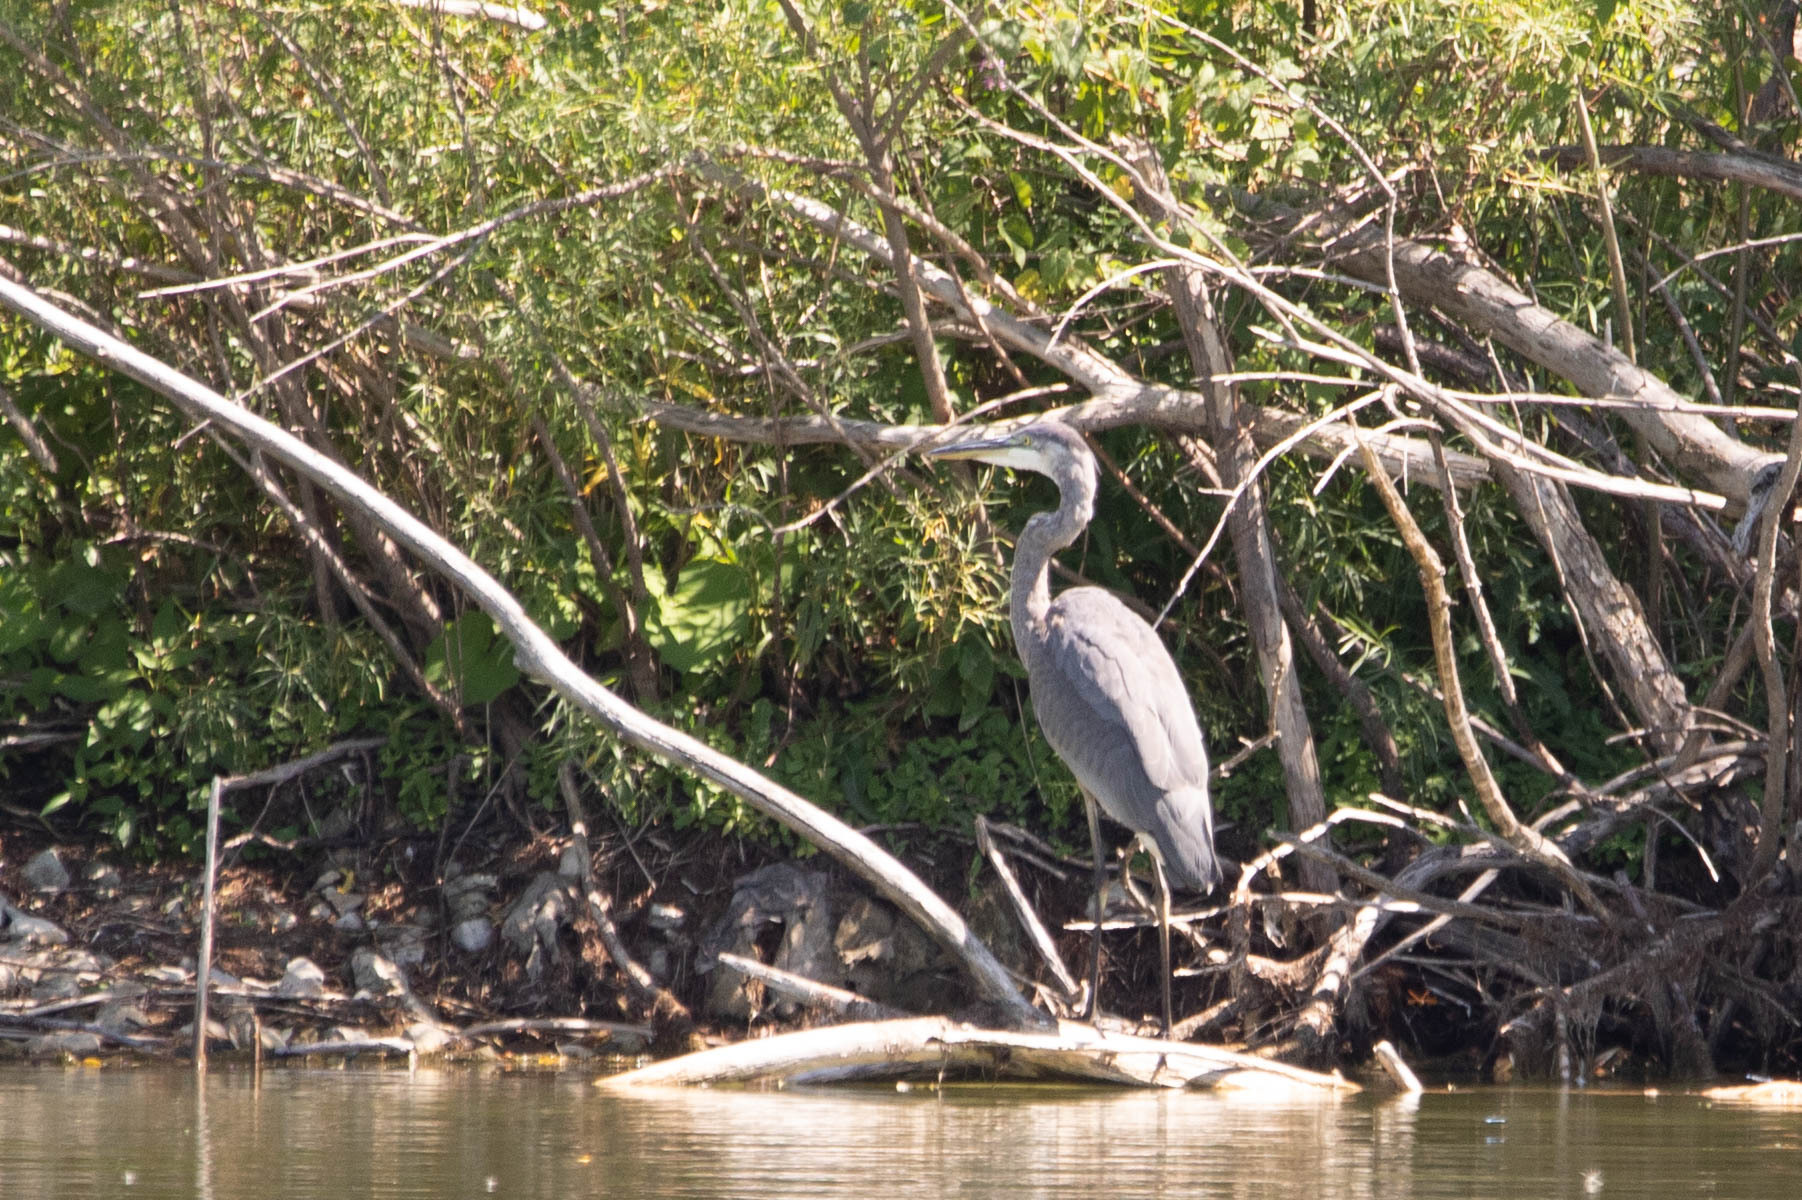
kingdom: Animalia
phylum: Chordata
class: Aves
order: Pelecaniformes
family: Ardeidae
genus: Ardea
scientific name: Ardea herodias
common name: Great blue heron
